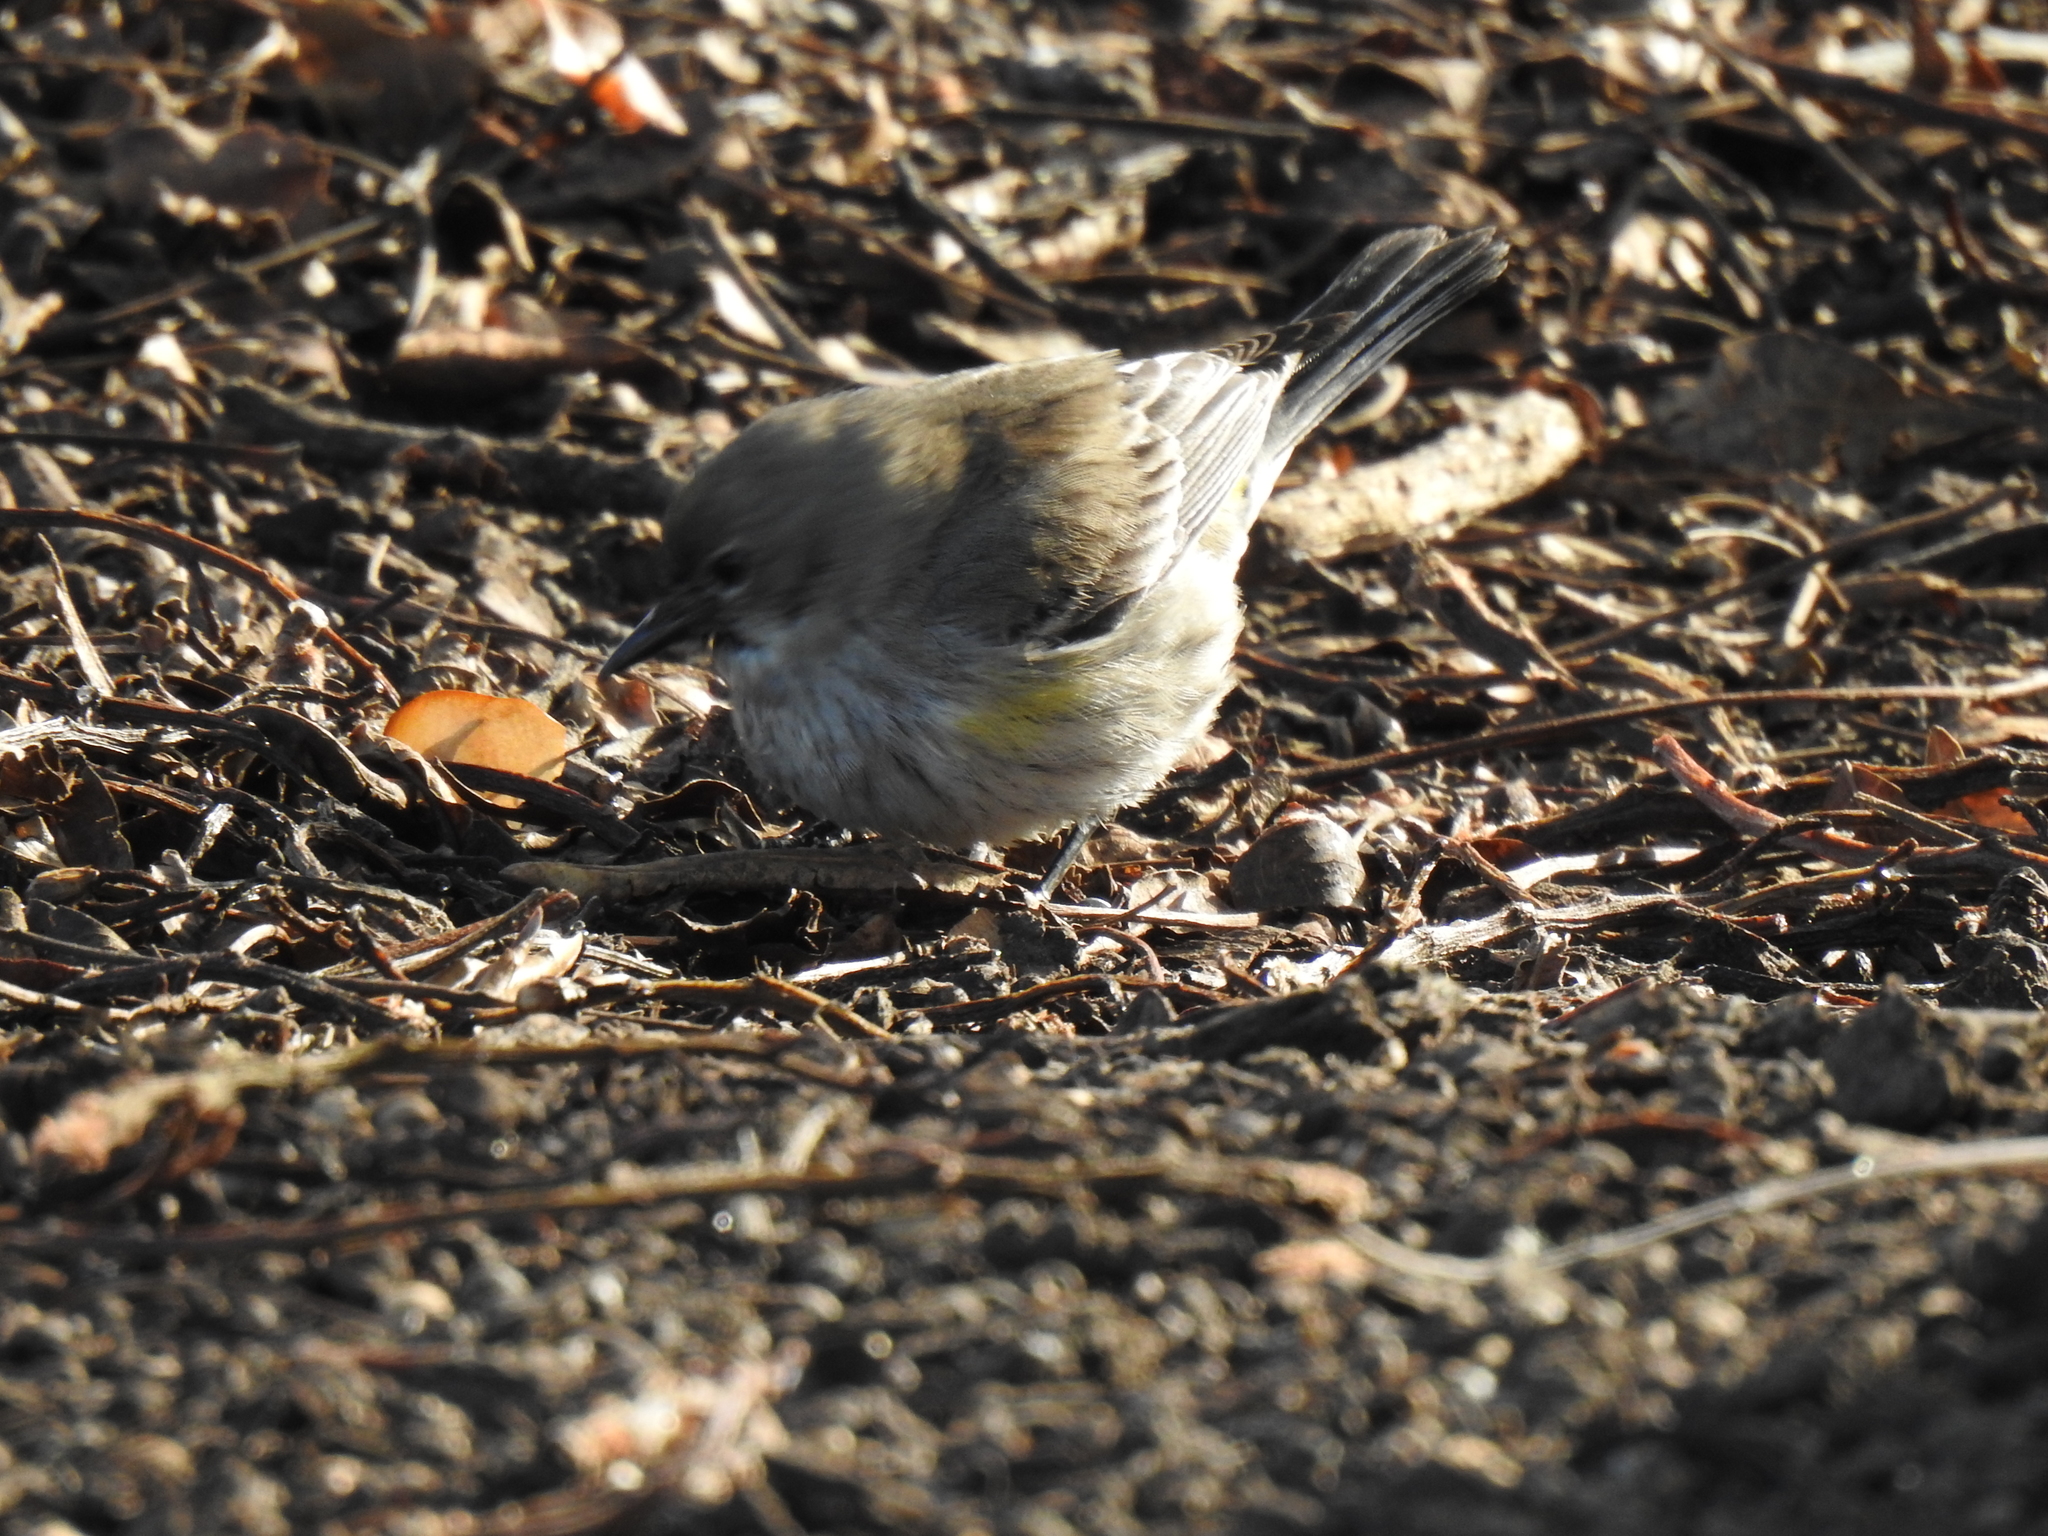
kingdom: Animalia
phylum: Chordata
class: Aves
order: Passeriformes
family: Parulidae
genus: Setophaga
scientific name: Setophaga coronata
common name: Myrtle warbler
